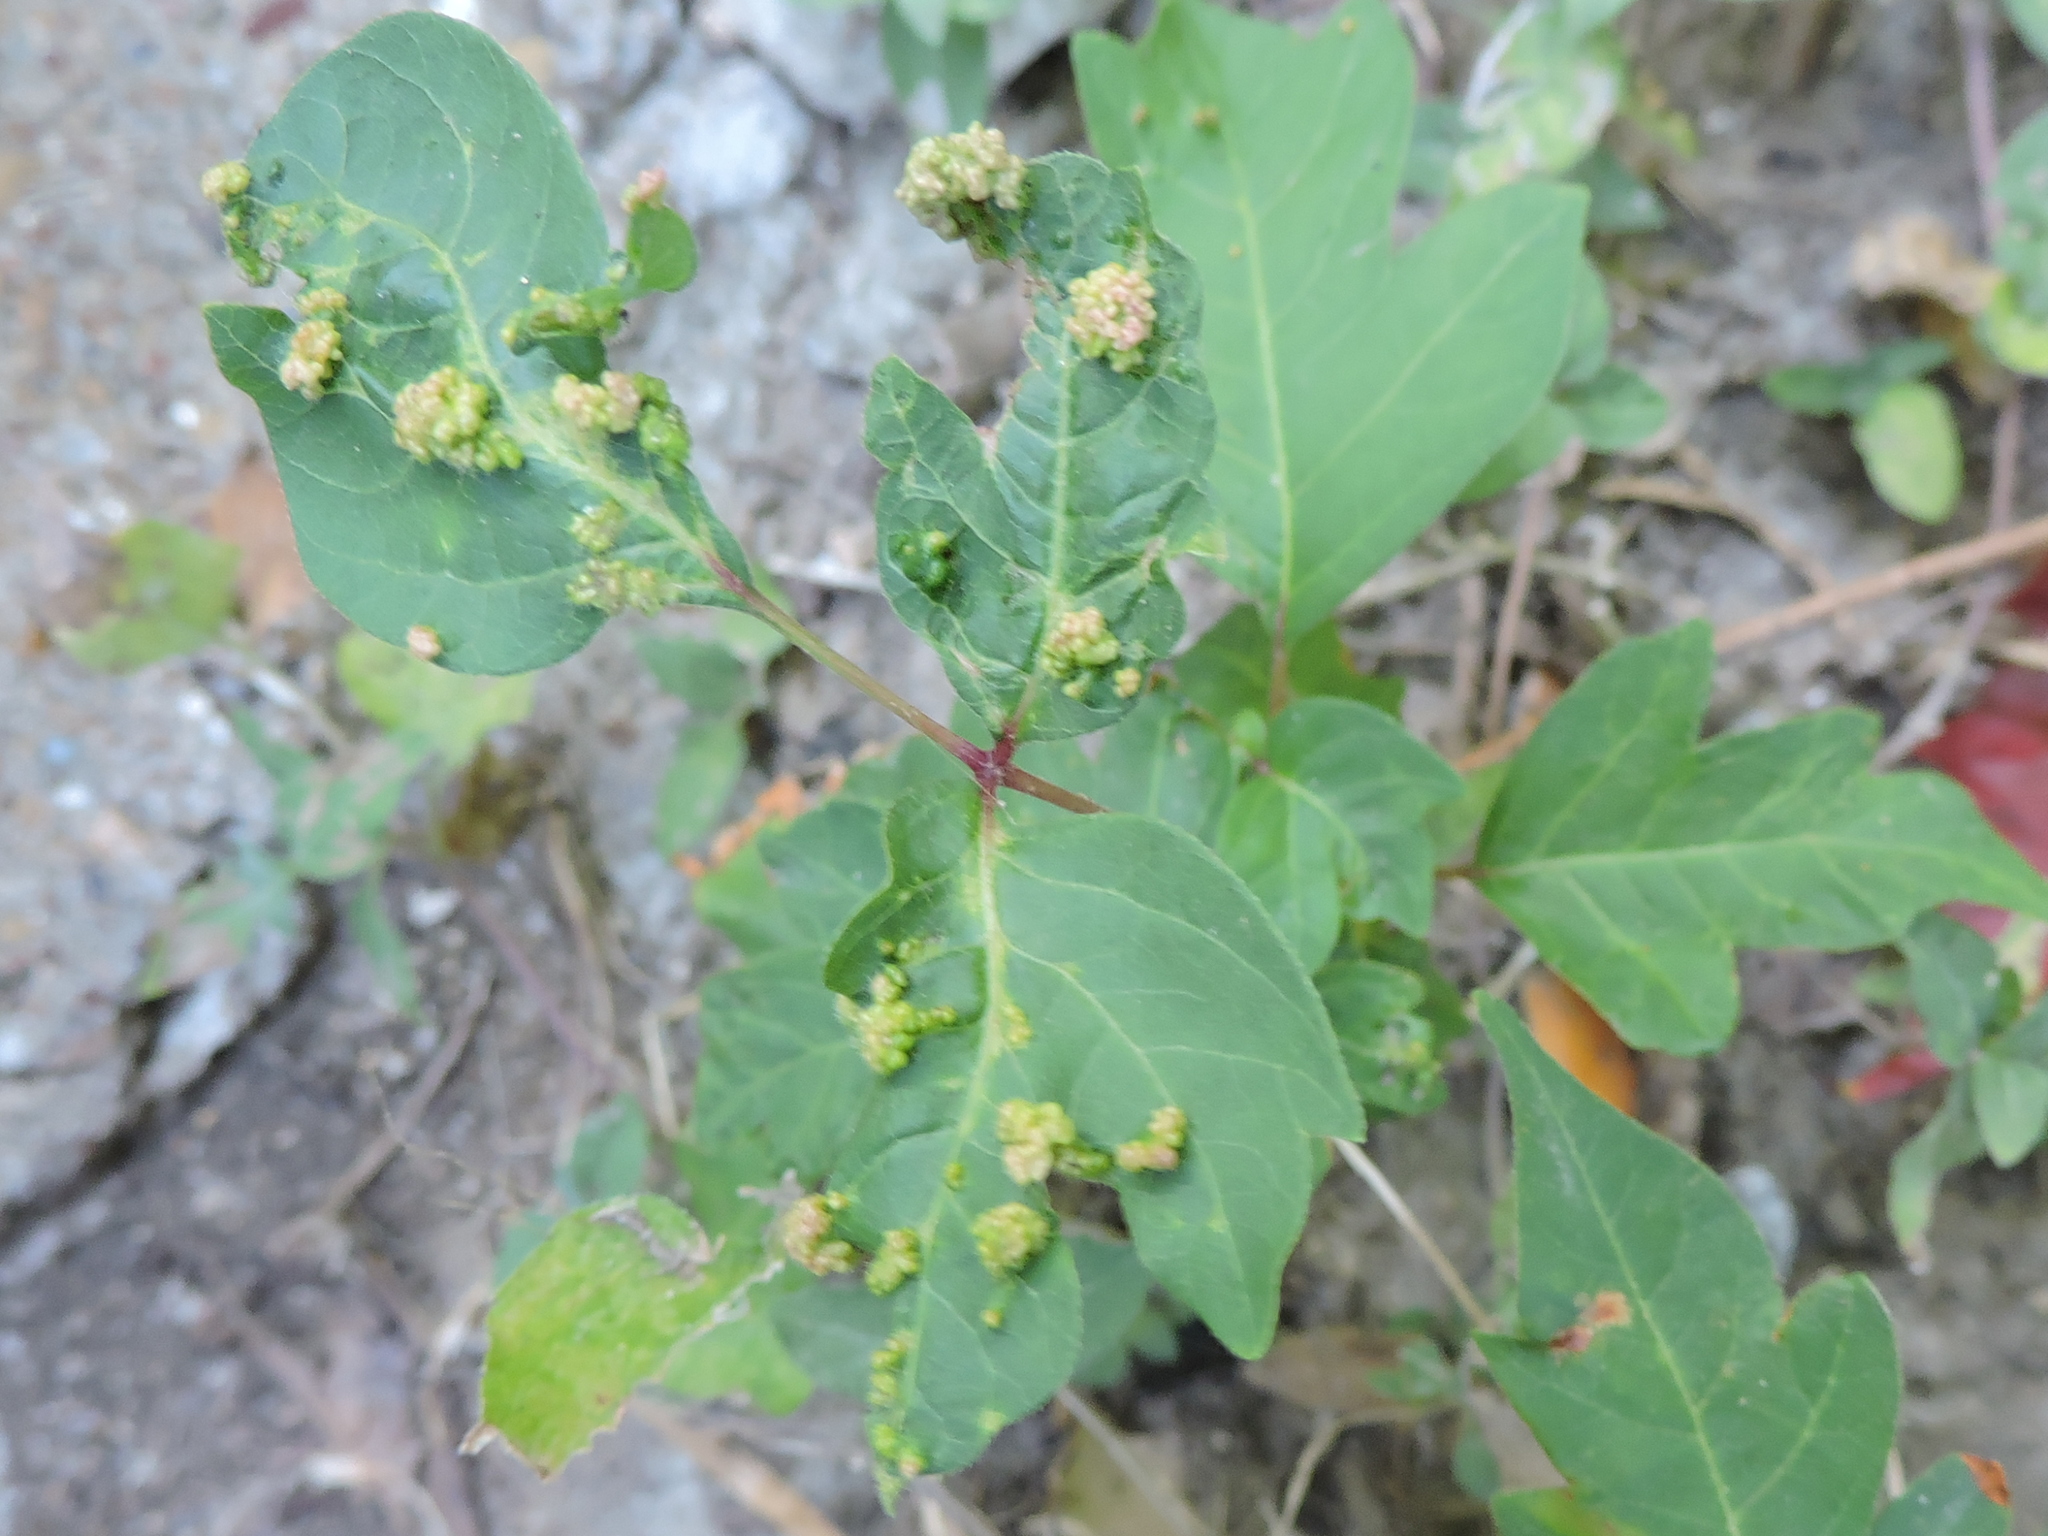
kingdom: Animalia
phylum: Arthropoda
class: Arachnida
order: Trombidiformes
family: Eriophyidae
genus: Aculops
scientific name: Aculops
